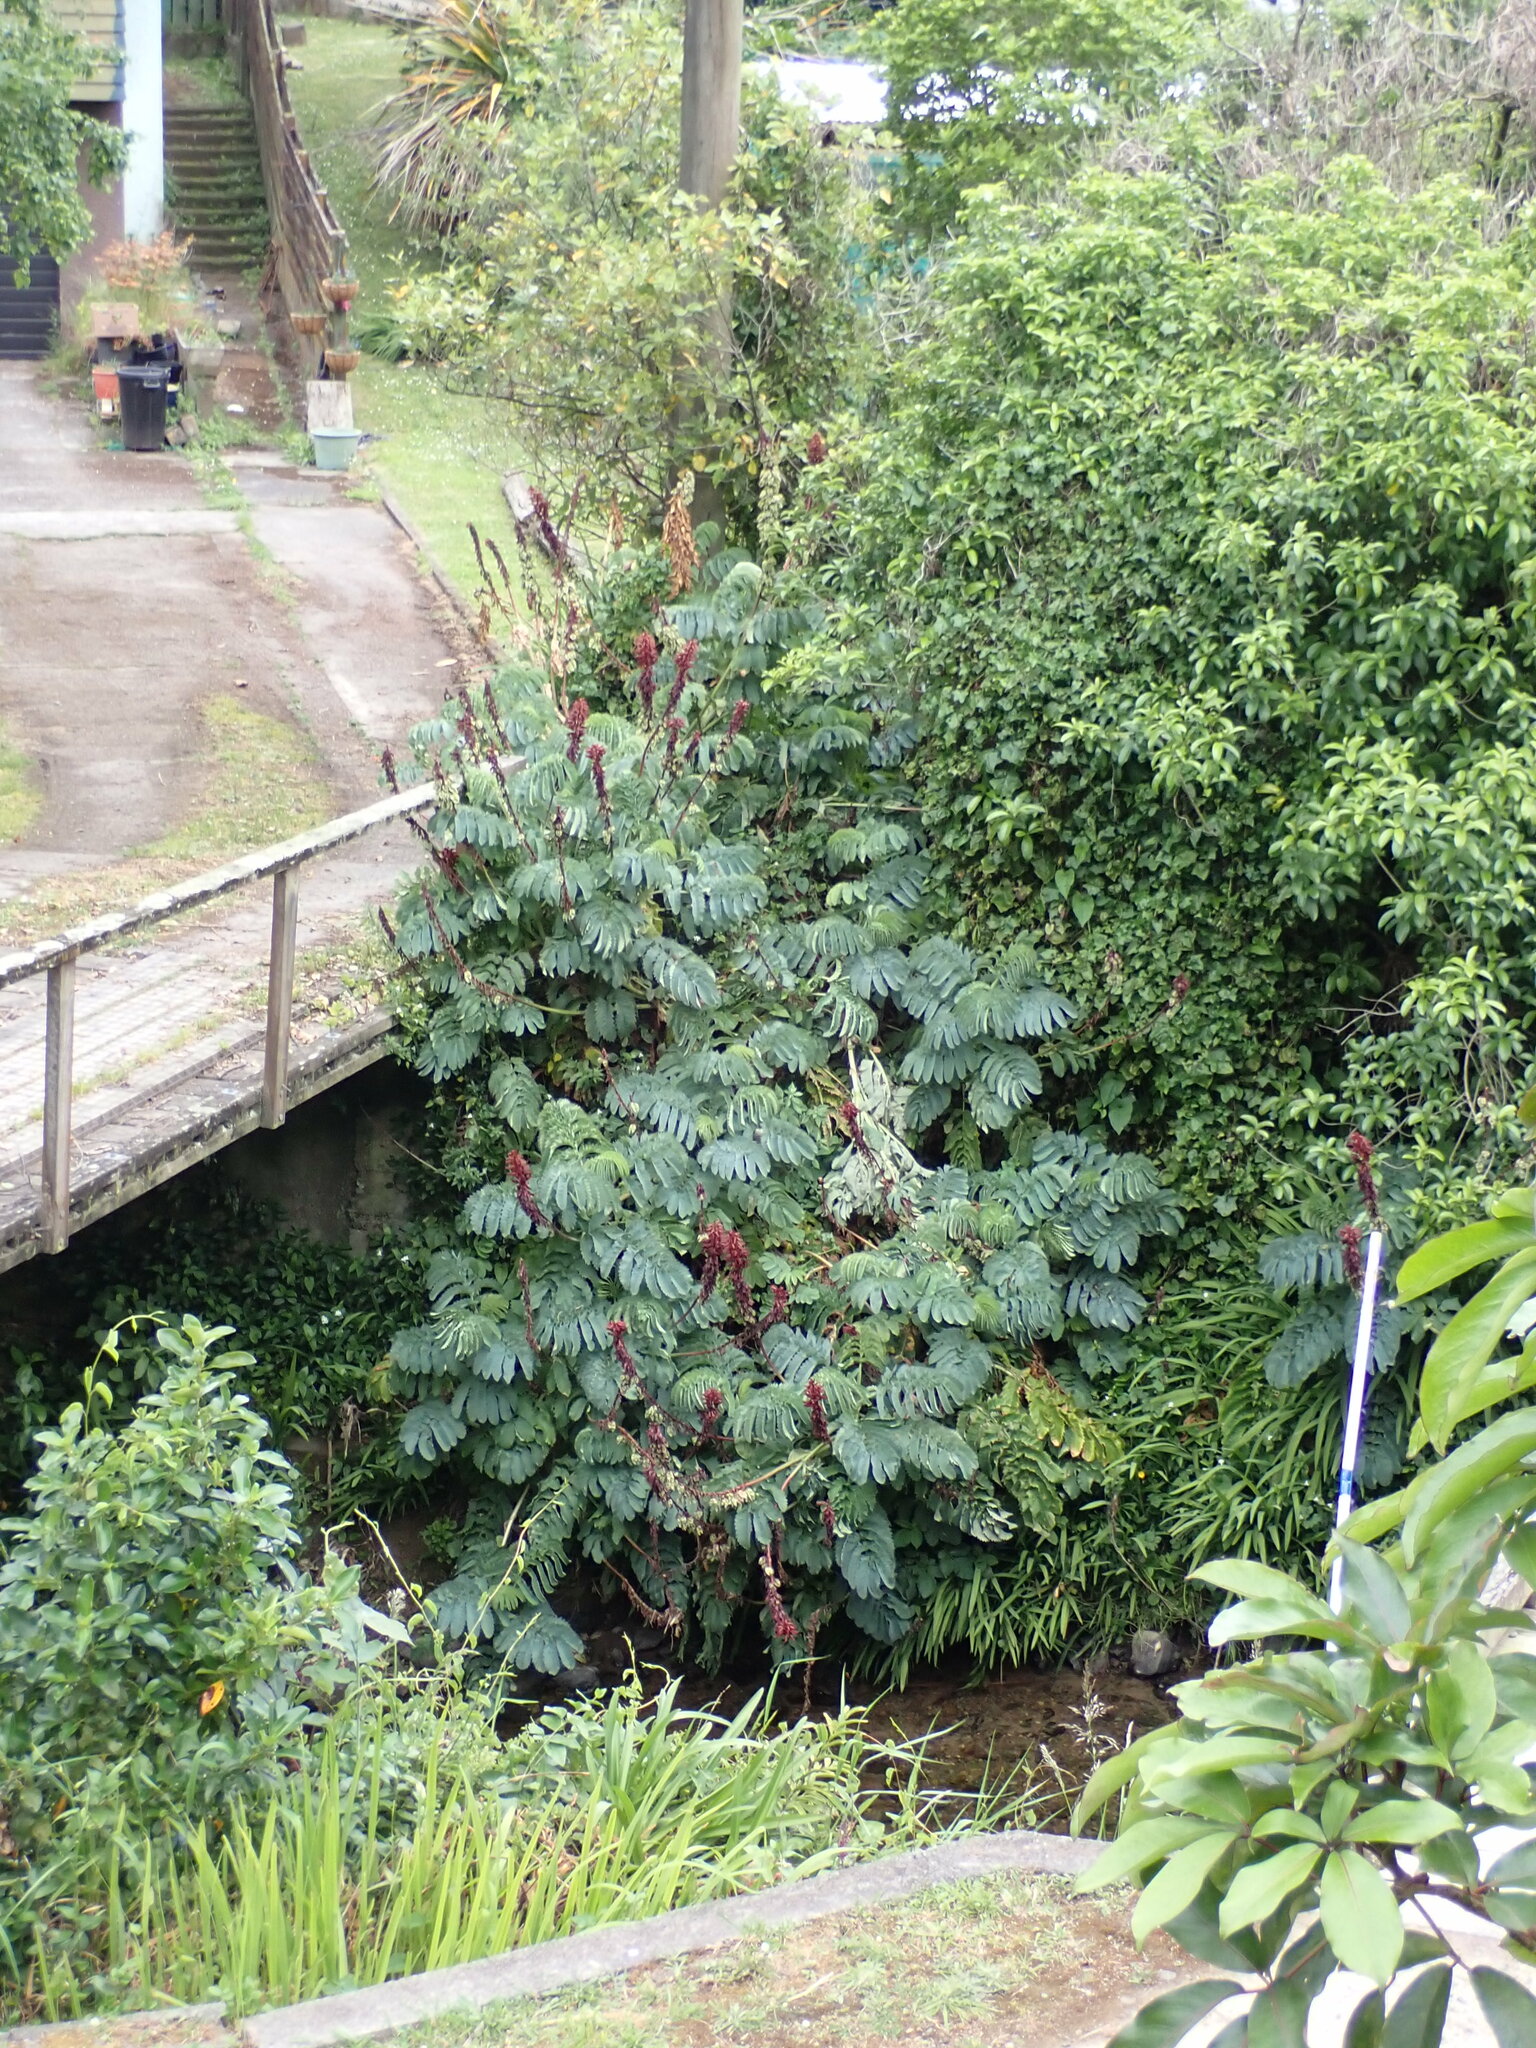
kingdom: Plantae
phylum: Tracheophyta
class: Magnoliopsida
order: Geraniales
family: Melianthaceae
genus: Melianthus
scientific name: Melianthus major
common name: Honey-flower
